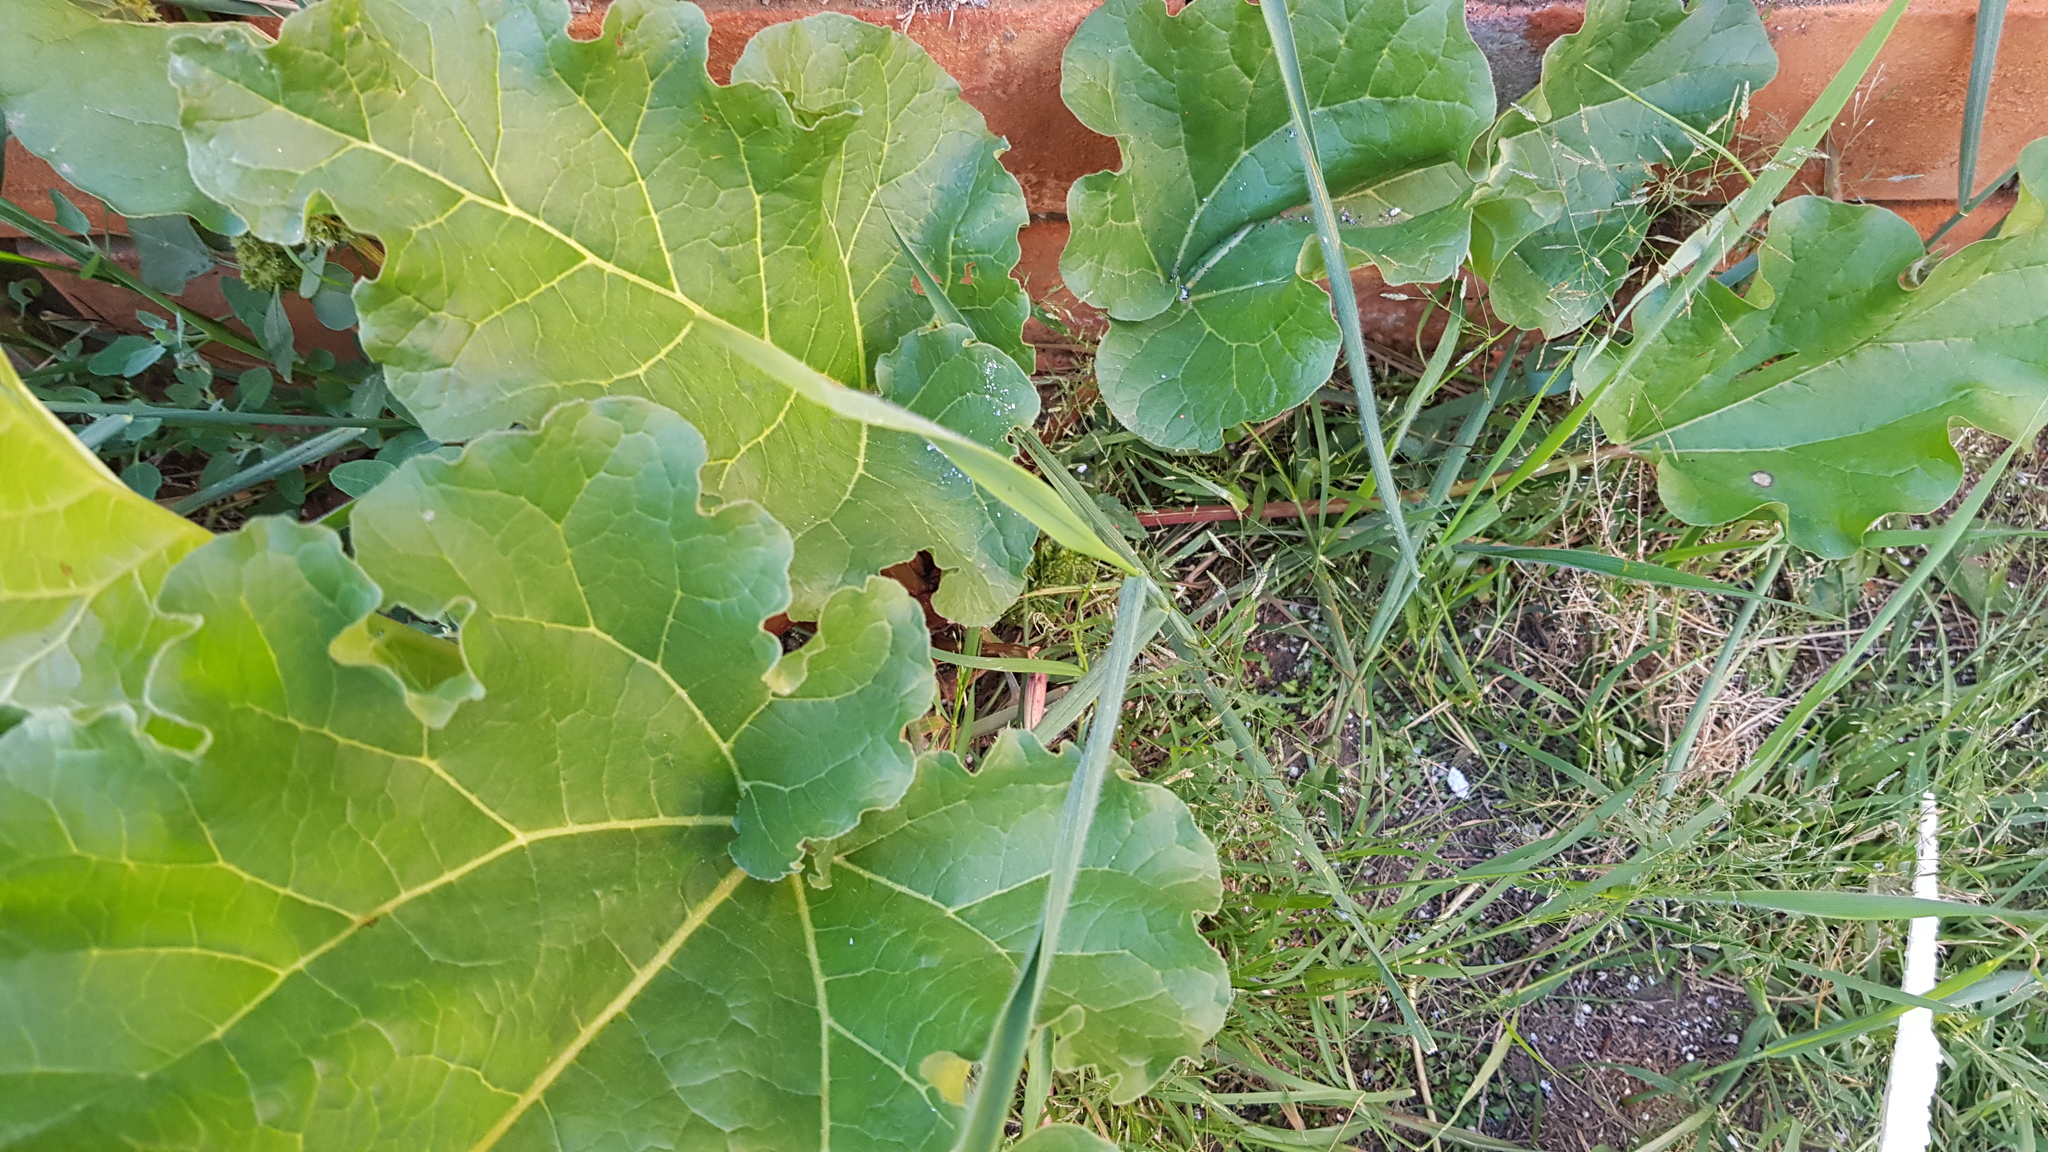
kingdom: Plantae
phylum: Tracheophyta
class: Magnoliopsida
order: Caryophyllales
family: Polygonaceae
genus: Rheum
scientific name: Rheum rhabarbarum
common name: Garden rhubarb
